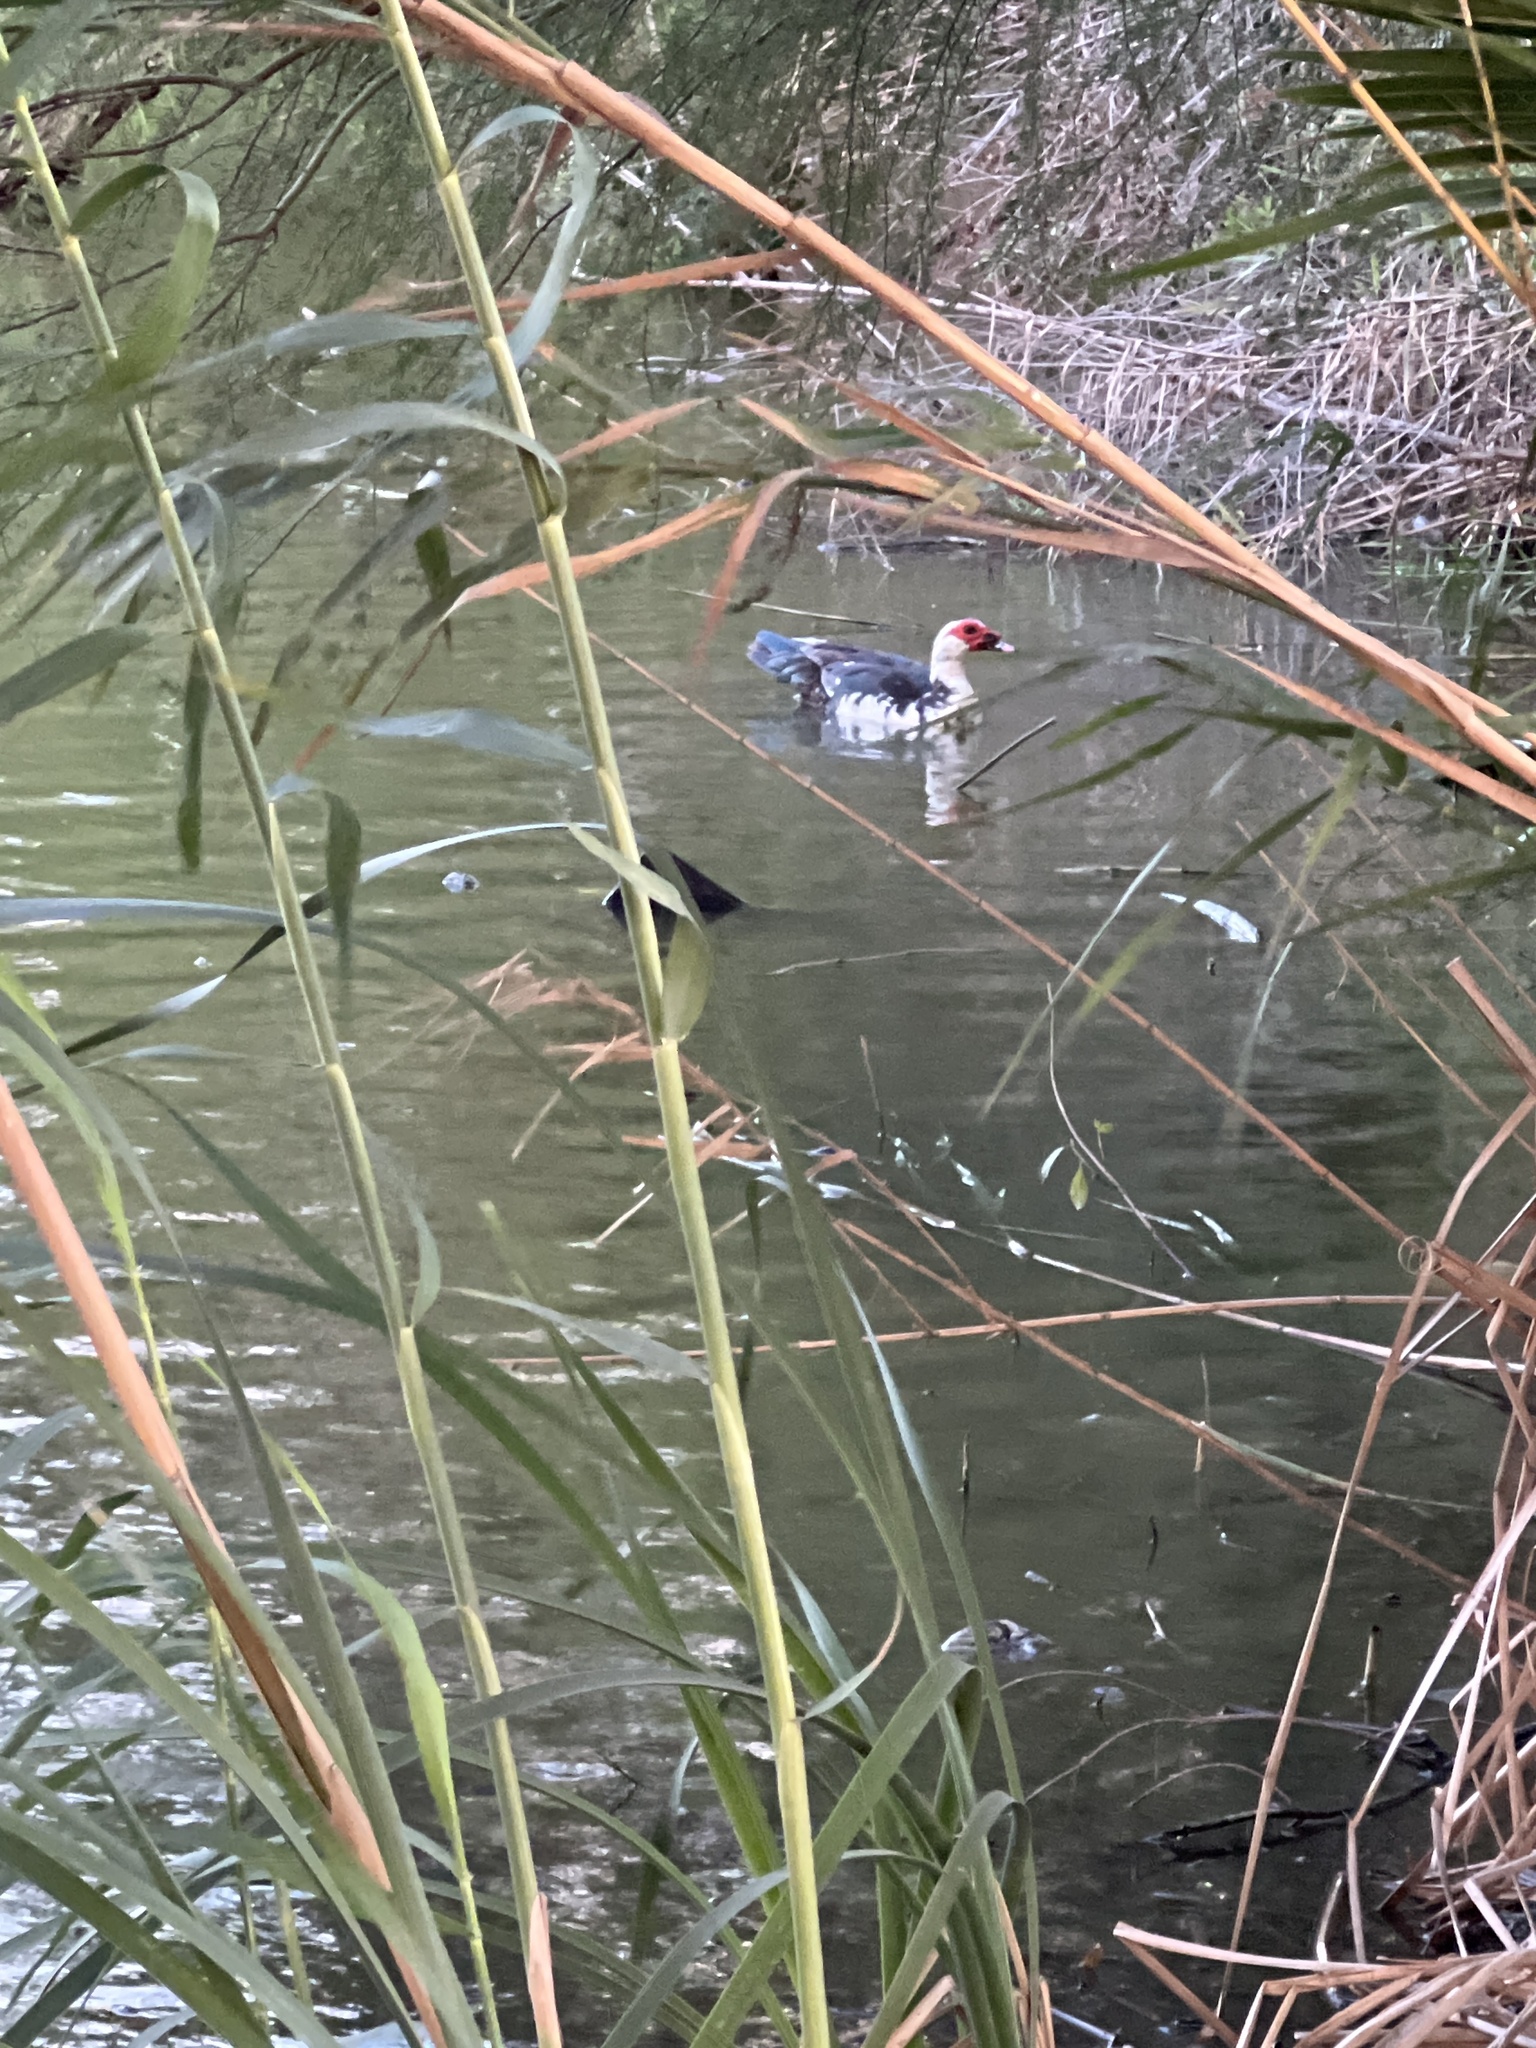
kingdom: Animalia
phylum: Chordata
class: Aves
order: Anseriformes
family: Anatidae
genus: Cairina
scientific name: Cairina moschata
